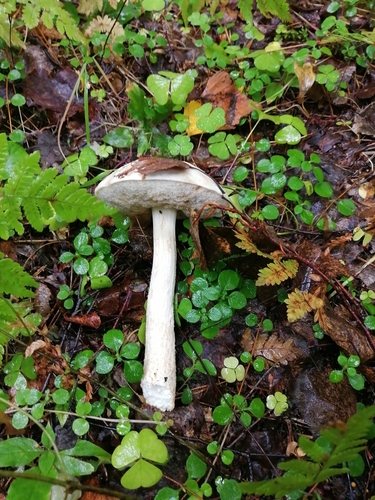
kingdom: Fungi
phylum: Basidiomycota
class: Agaricomycetes
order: Boletales
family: Boletaceae
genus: Leccinum
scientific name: Leccinum holopus
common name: Ghost bolete
